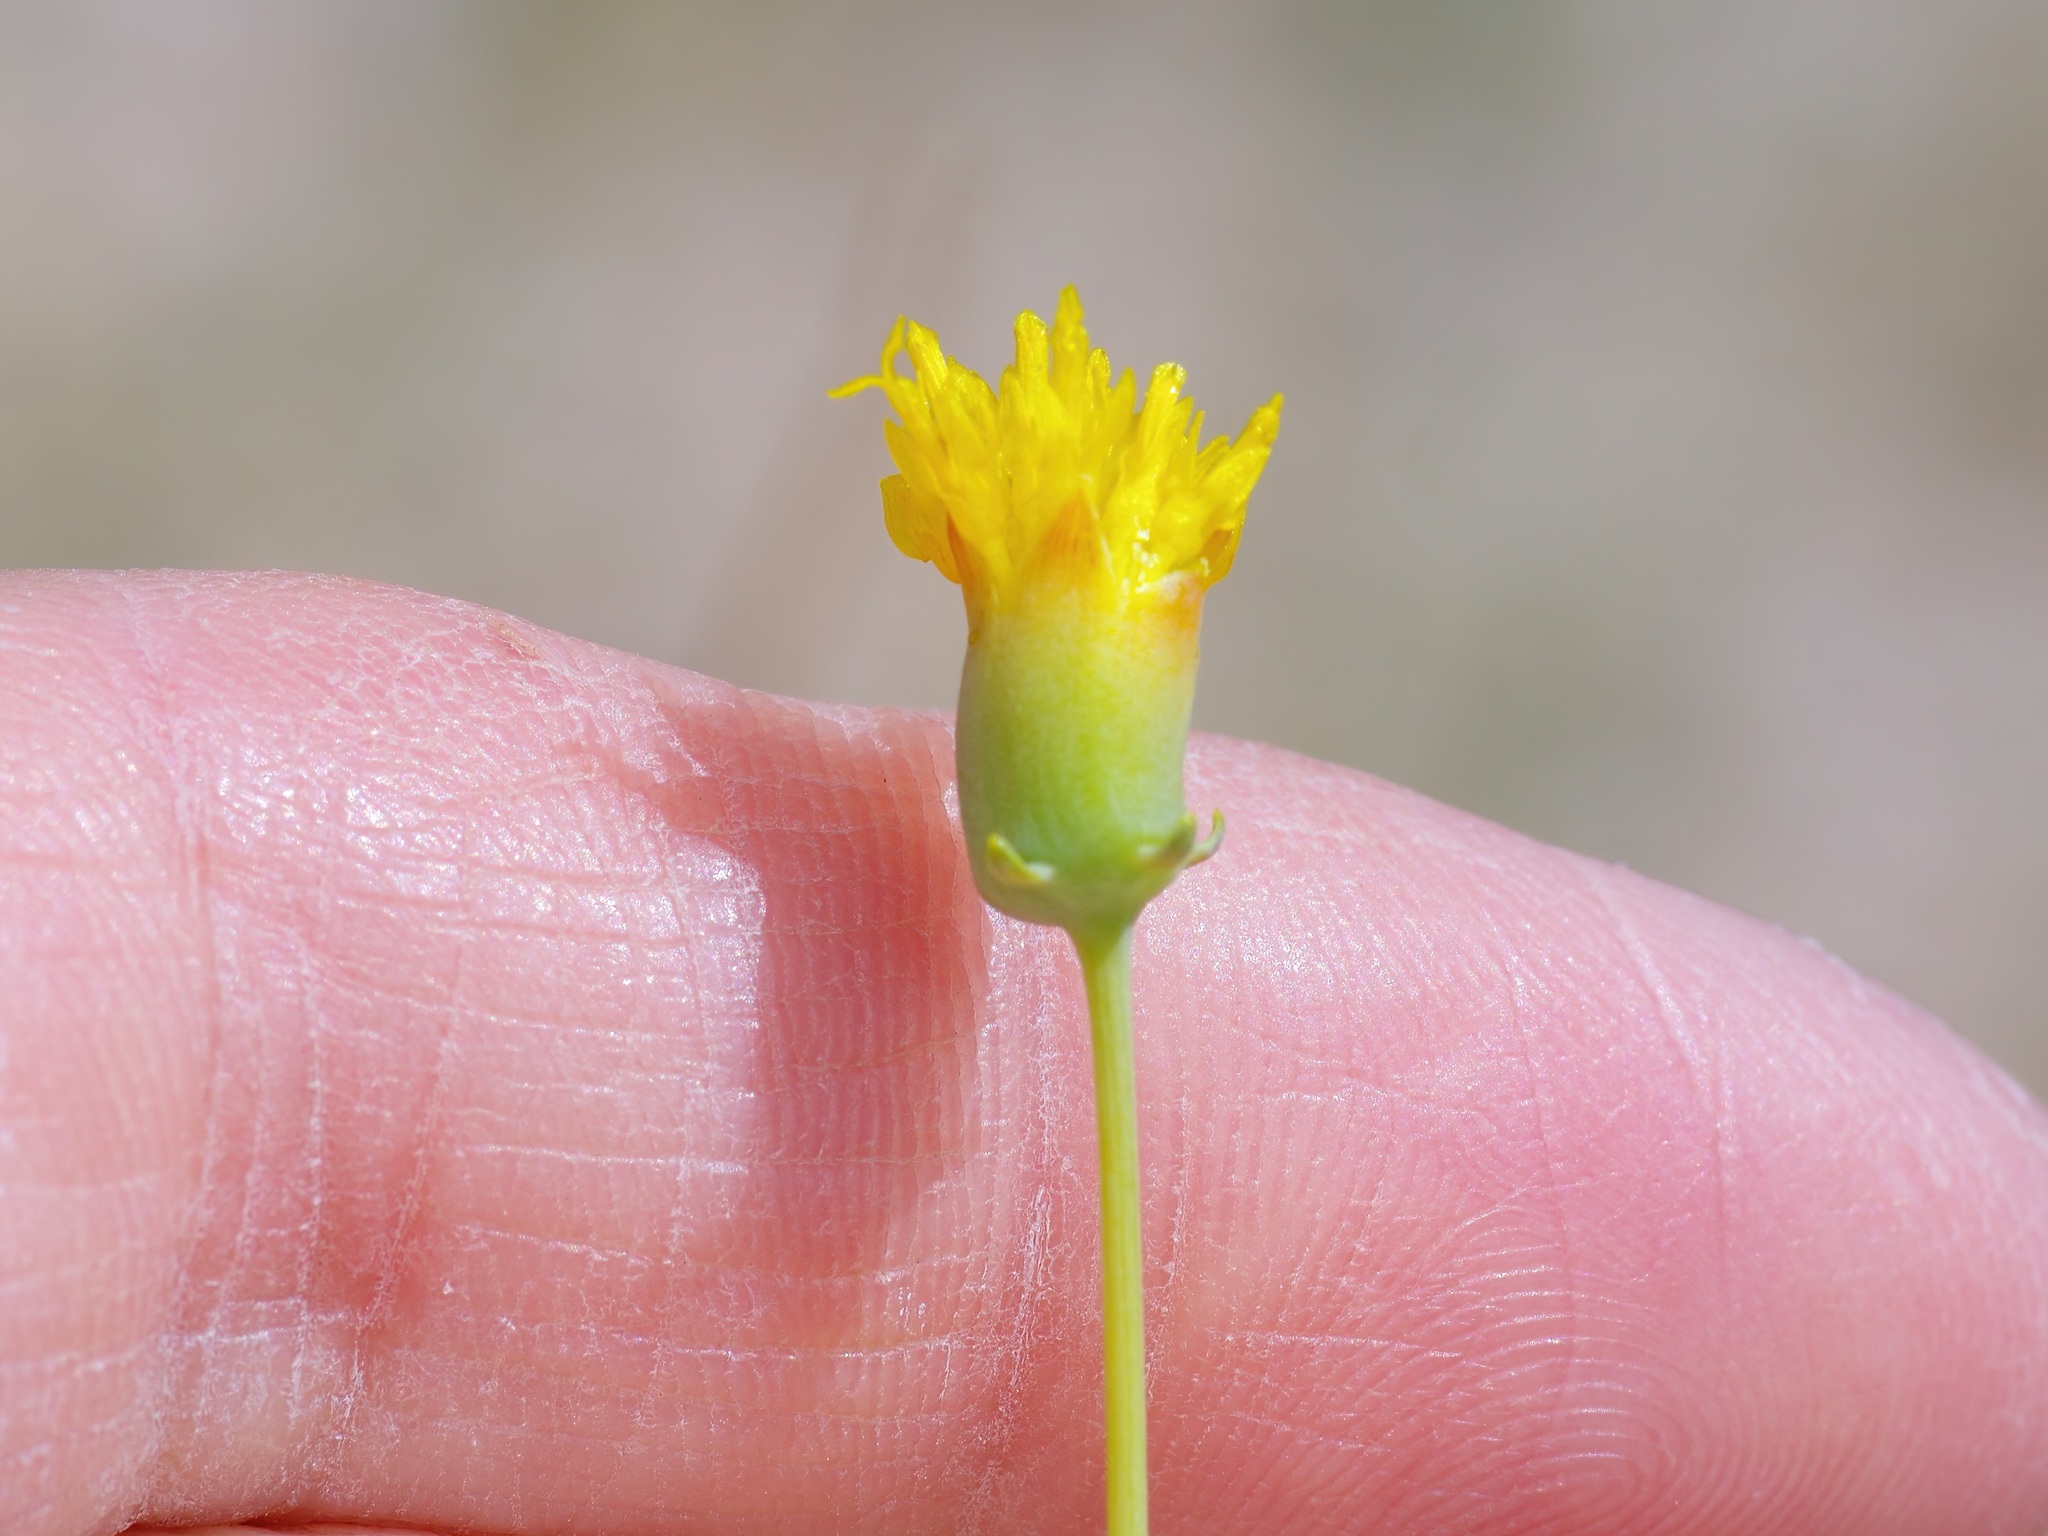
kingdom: Plantae
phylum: Tracheophyta
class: Magnoliopsida
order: Asterales
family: Asteraceae
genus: Thelesperma
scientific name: Thelesperma megapotamicum
